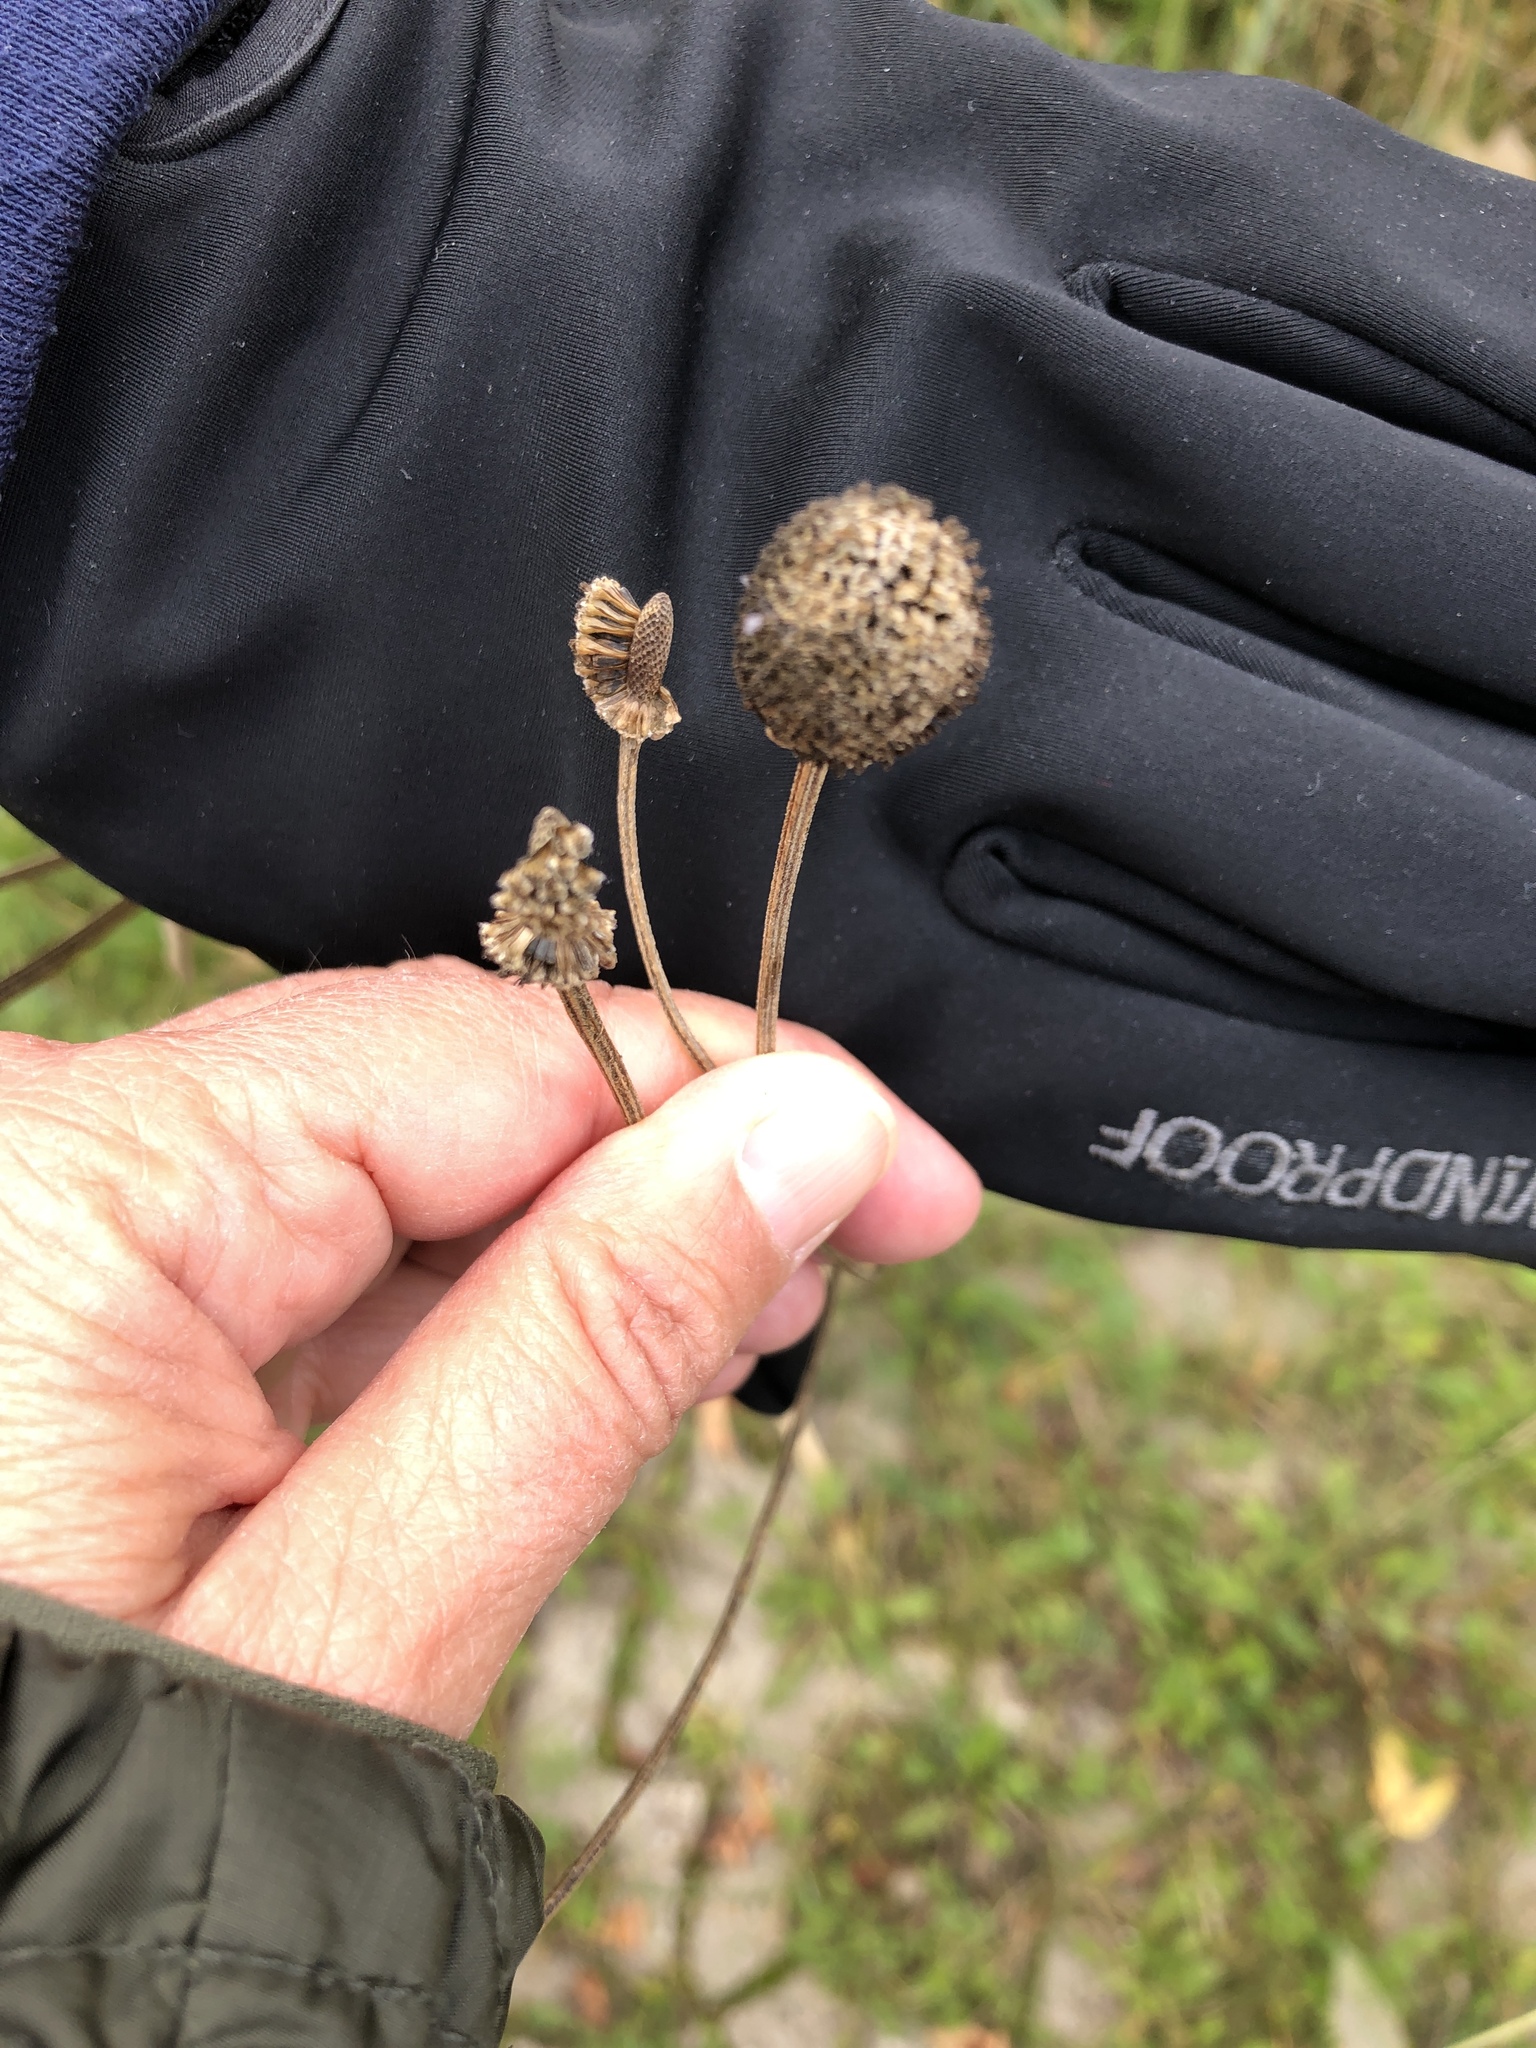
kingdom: Plantae
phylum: Tracheophyta
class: Magnoliopsida
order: Asterales
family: Asteraceae
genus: Ratibida
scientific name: Ratibida pinnata
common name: Drooping prairie-coneflower
